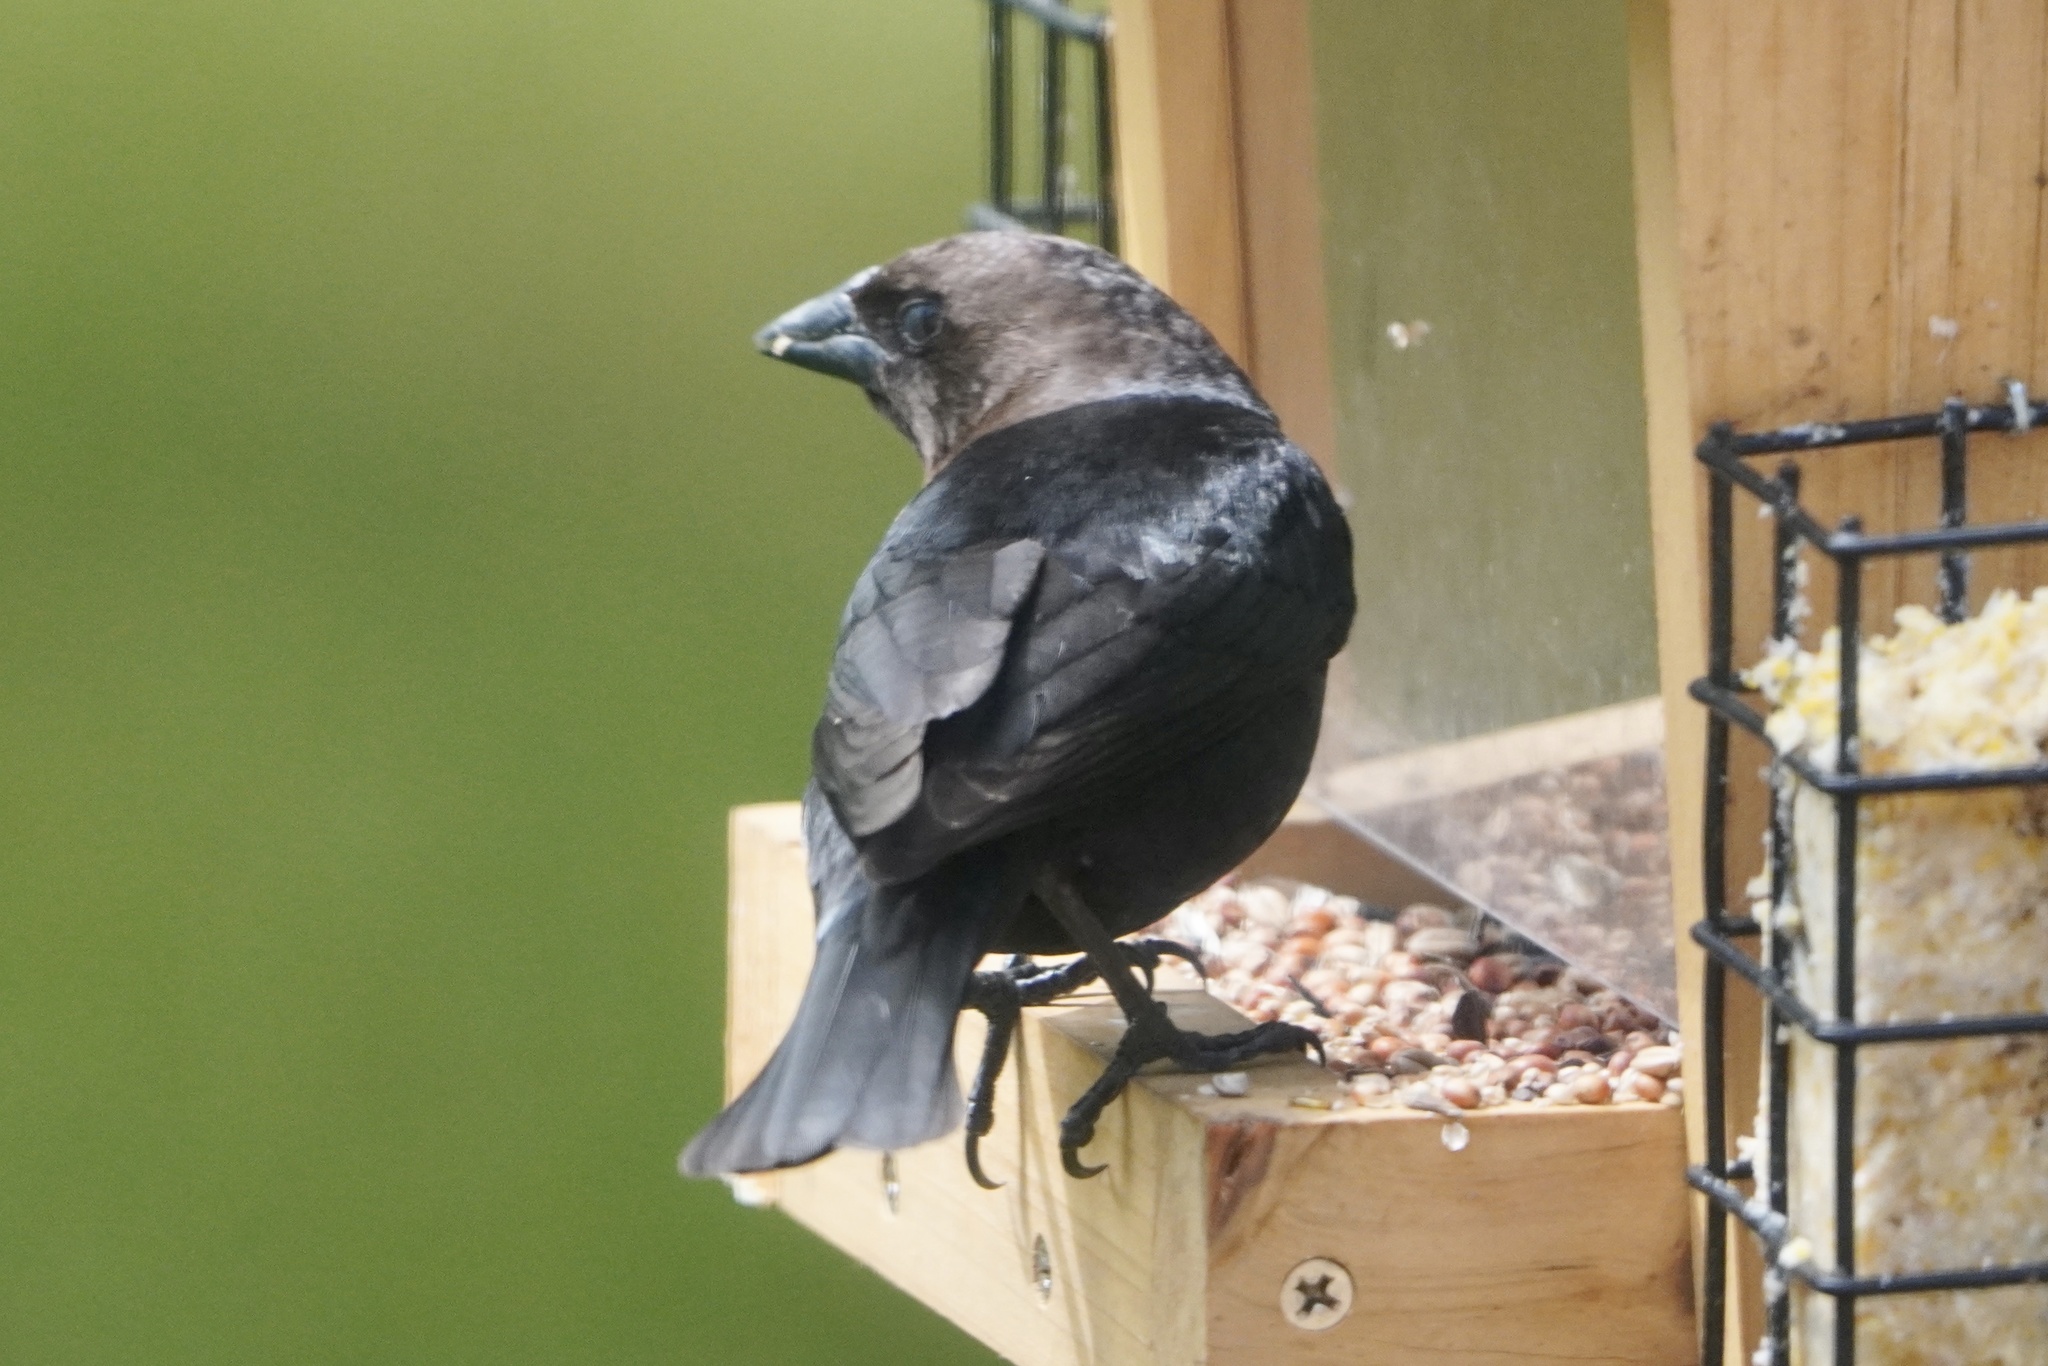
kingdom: Animalia
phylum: Chordata
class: Aves
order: Passeriformes
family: Icteridae
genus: Molothrus
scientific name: Molothrus ater
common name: Brown-headed cowbird
